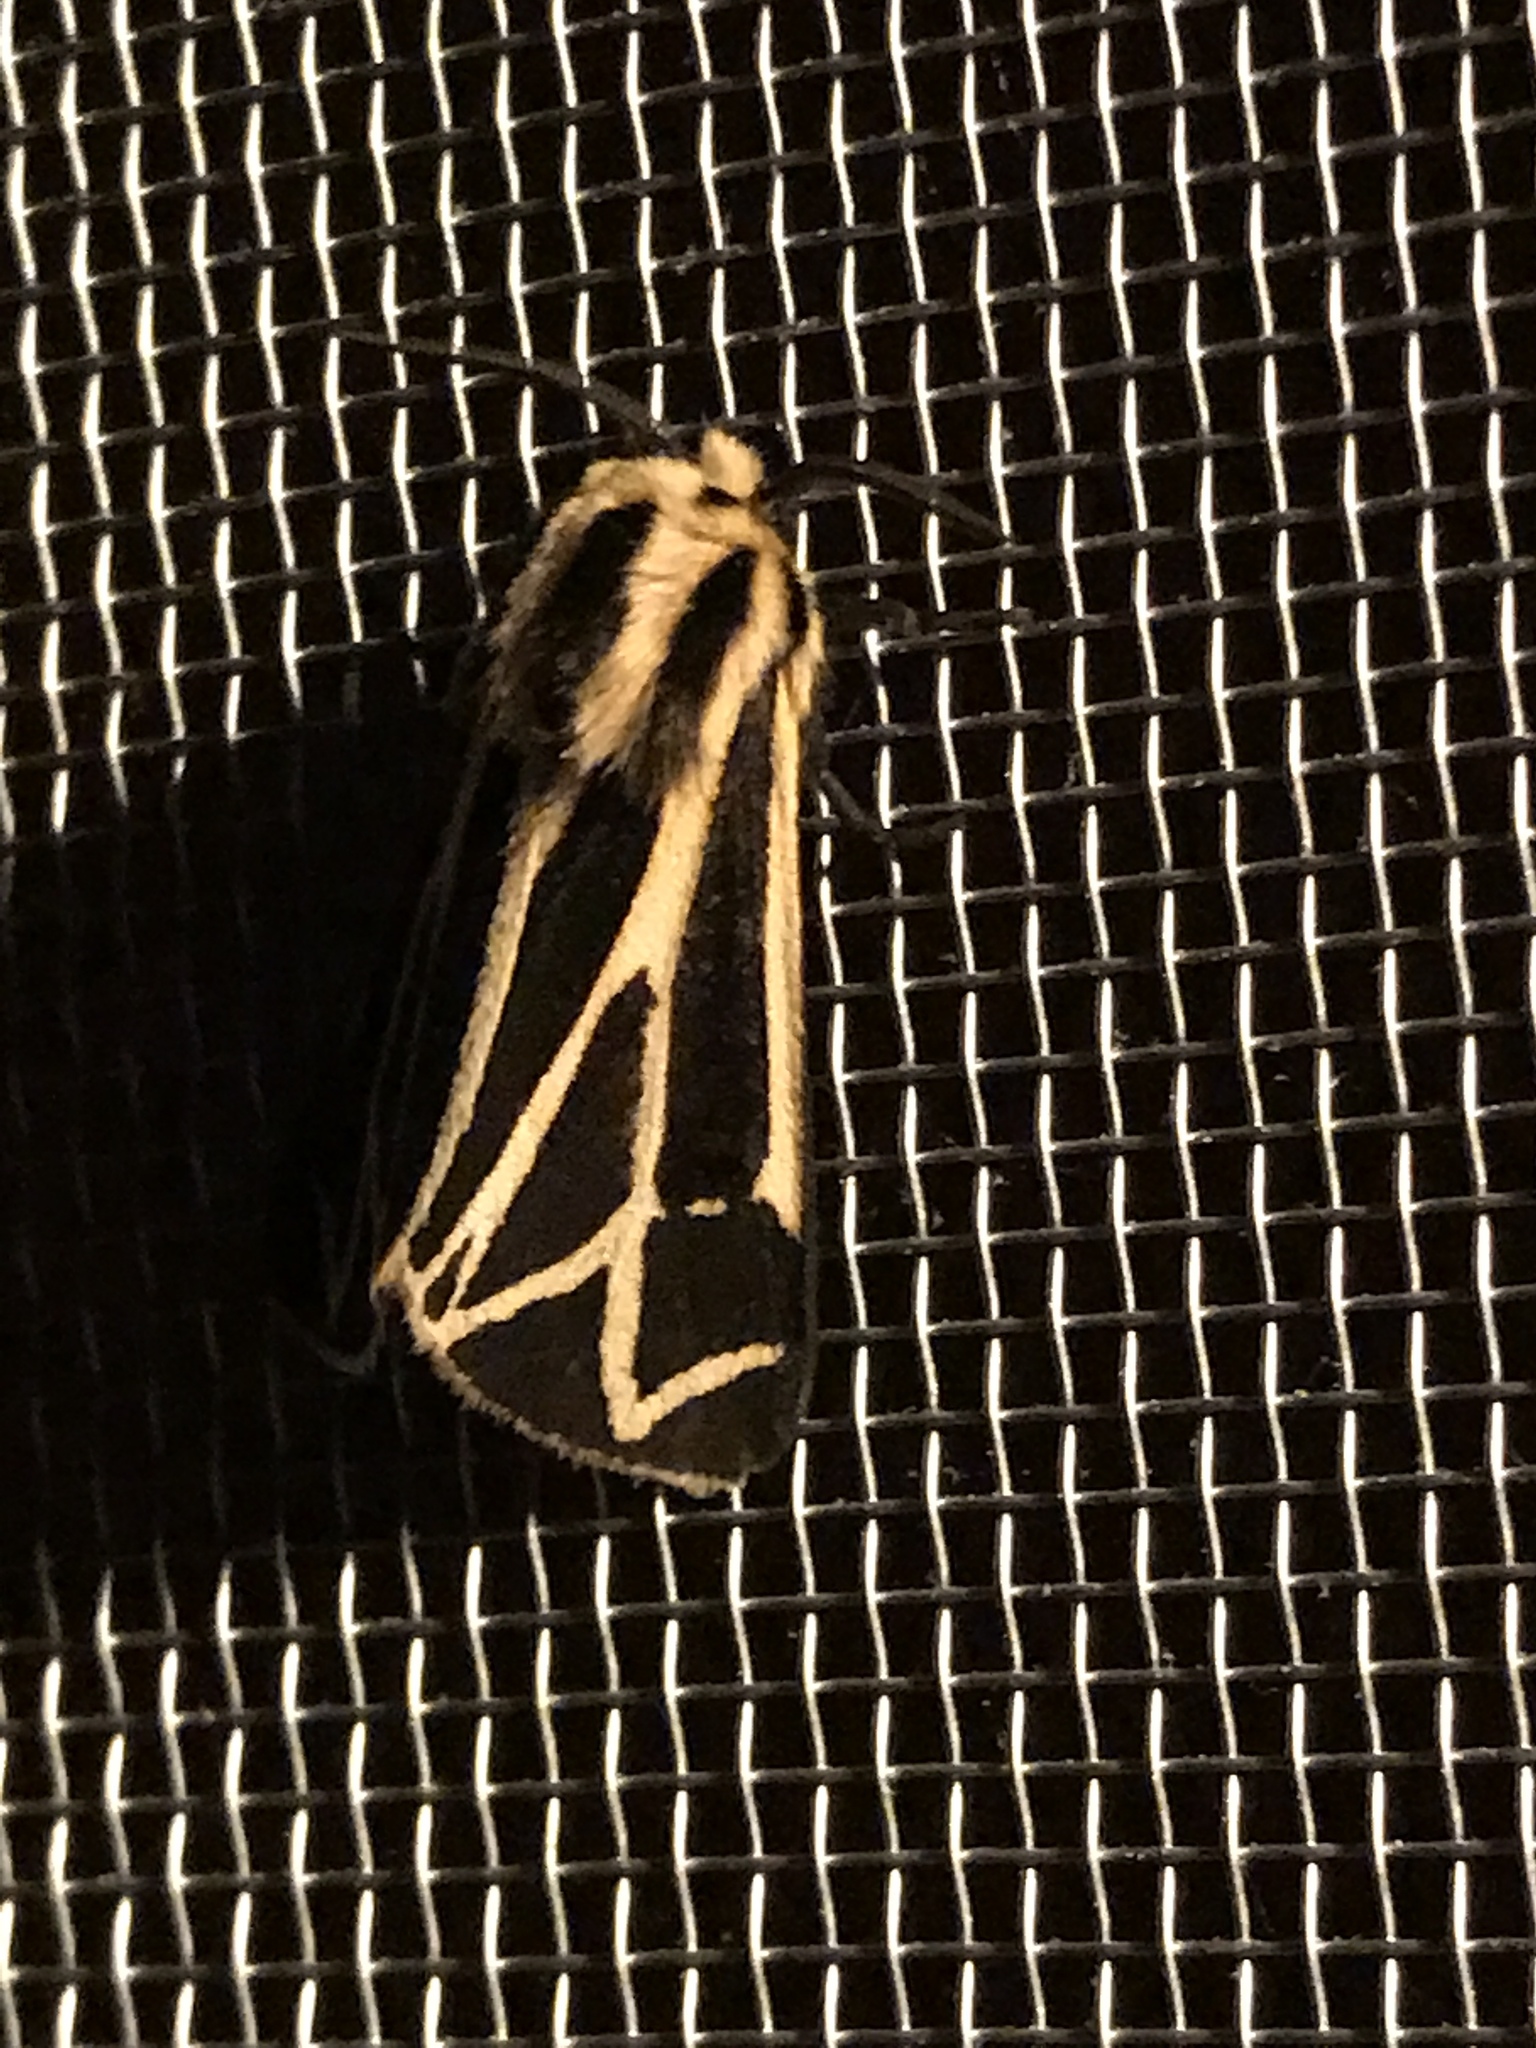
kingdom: Animalia
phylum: Arthropoda
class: Insecta
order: Lepidoptera
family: Erebidae
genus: Apantesis
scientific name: Apantesis
